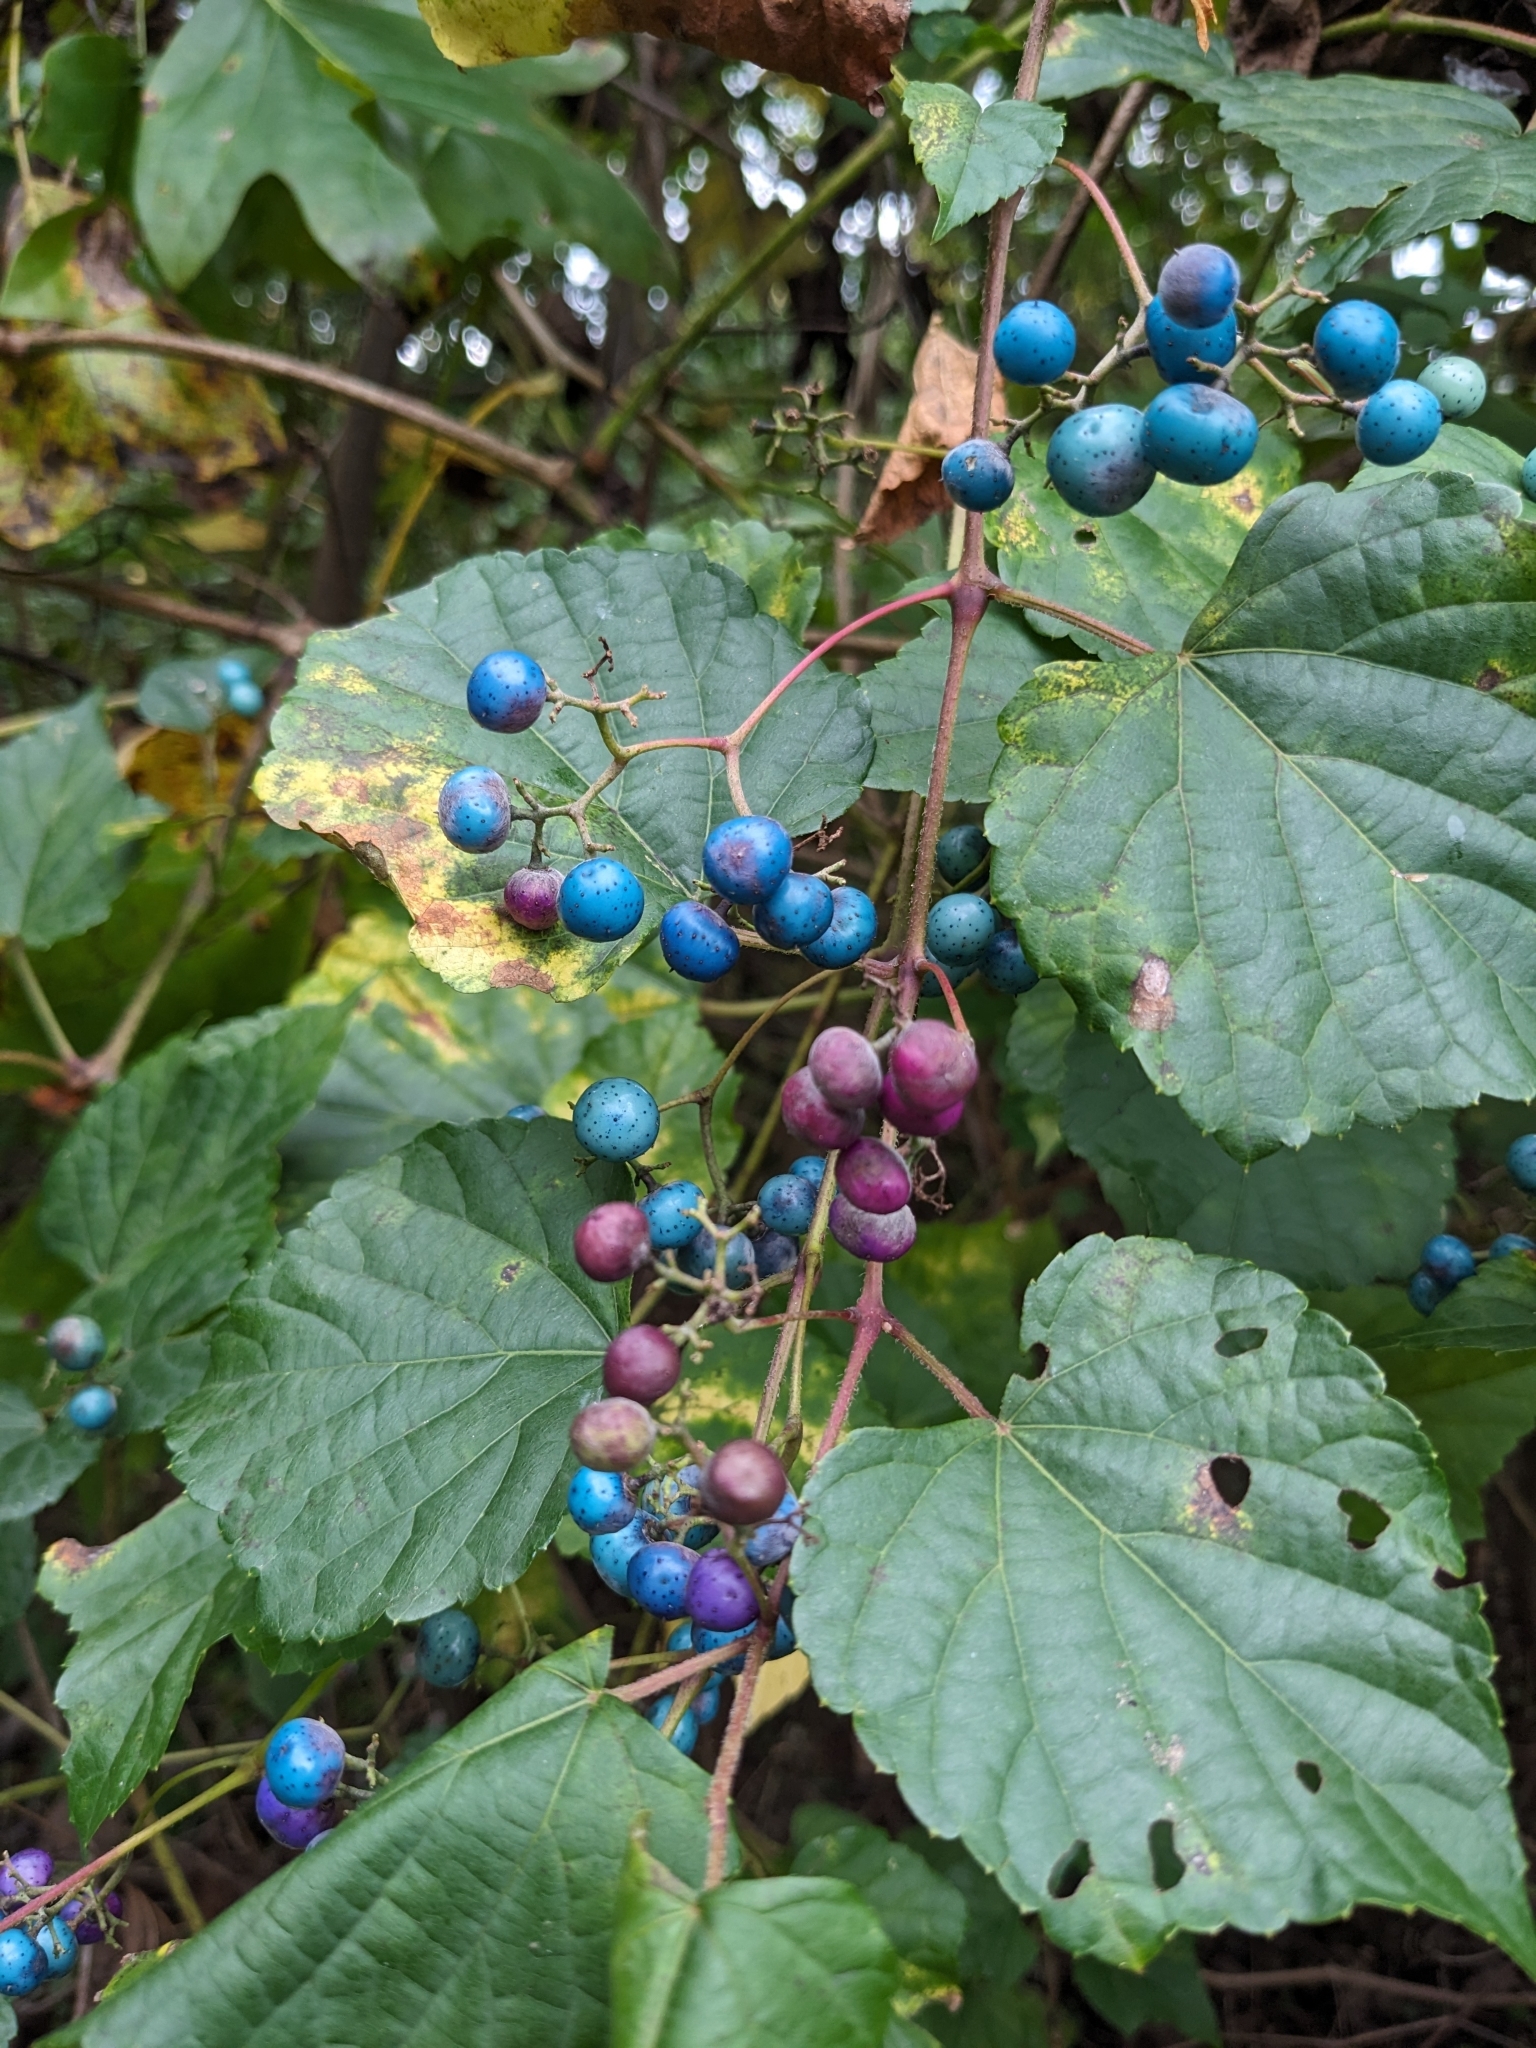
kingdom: Plantae
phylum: Tracheophyta
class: Magnoliopsida
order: Vitales
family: Vitaceae
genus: Ampelopsis
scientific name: Ampelopsis glandulosa
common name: Amur peppervine
